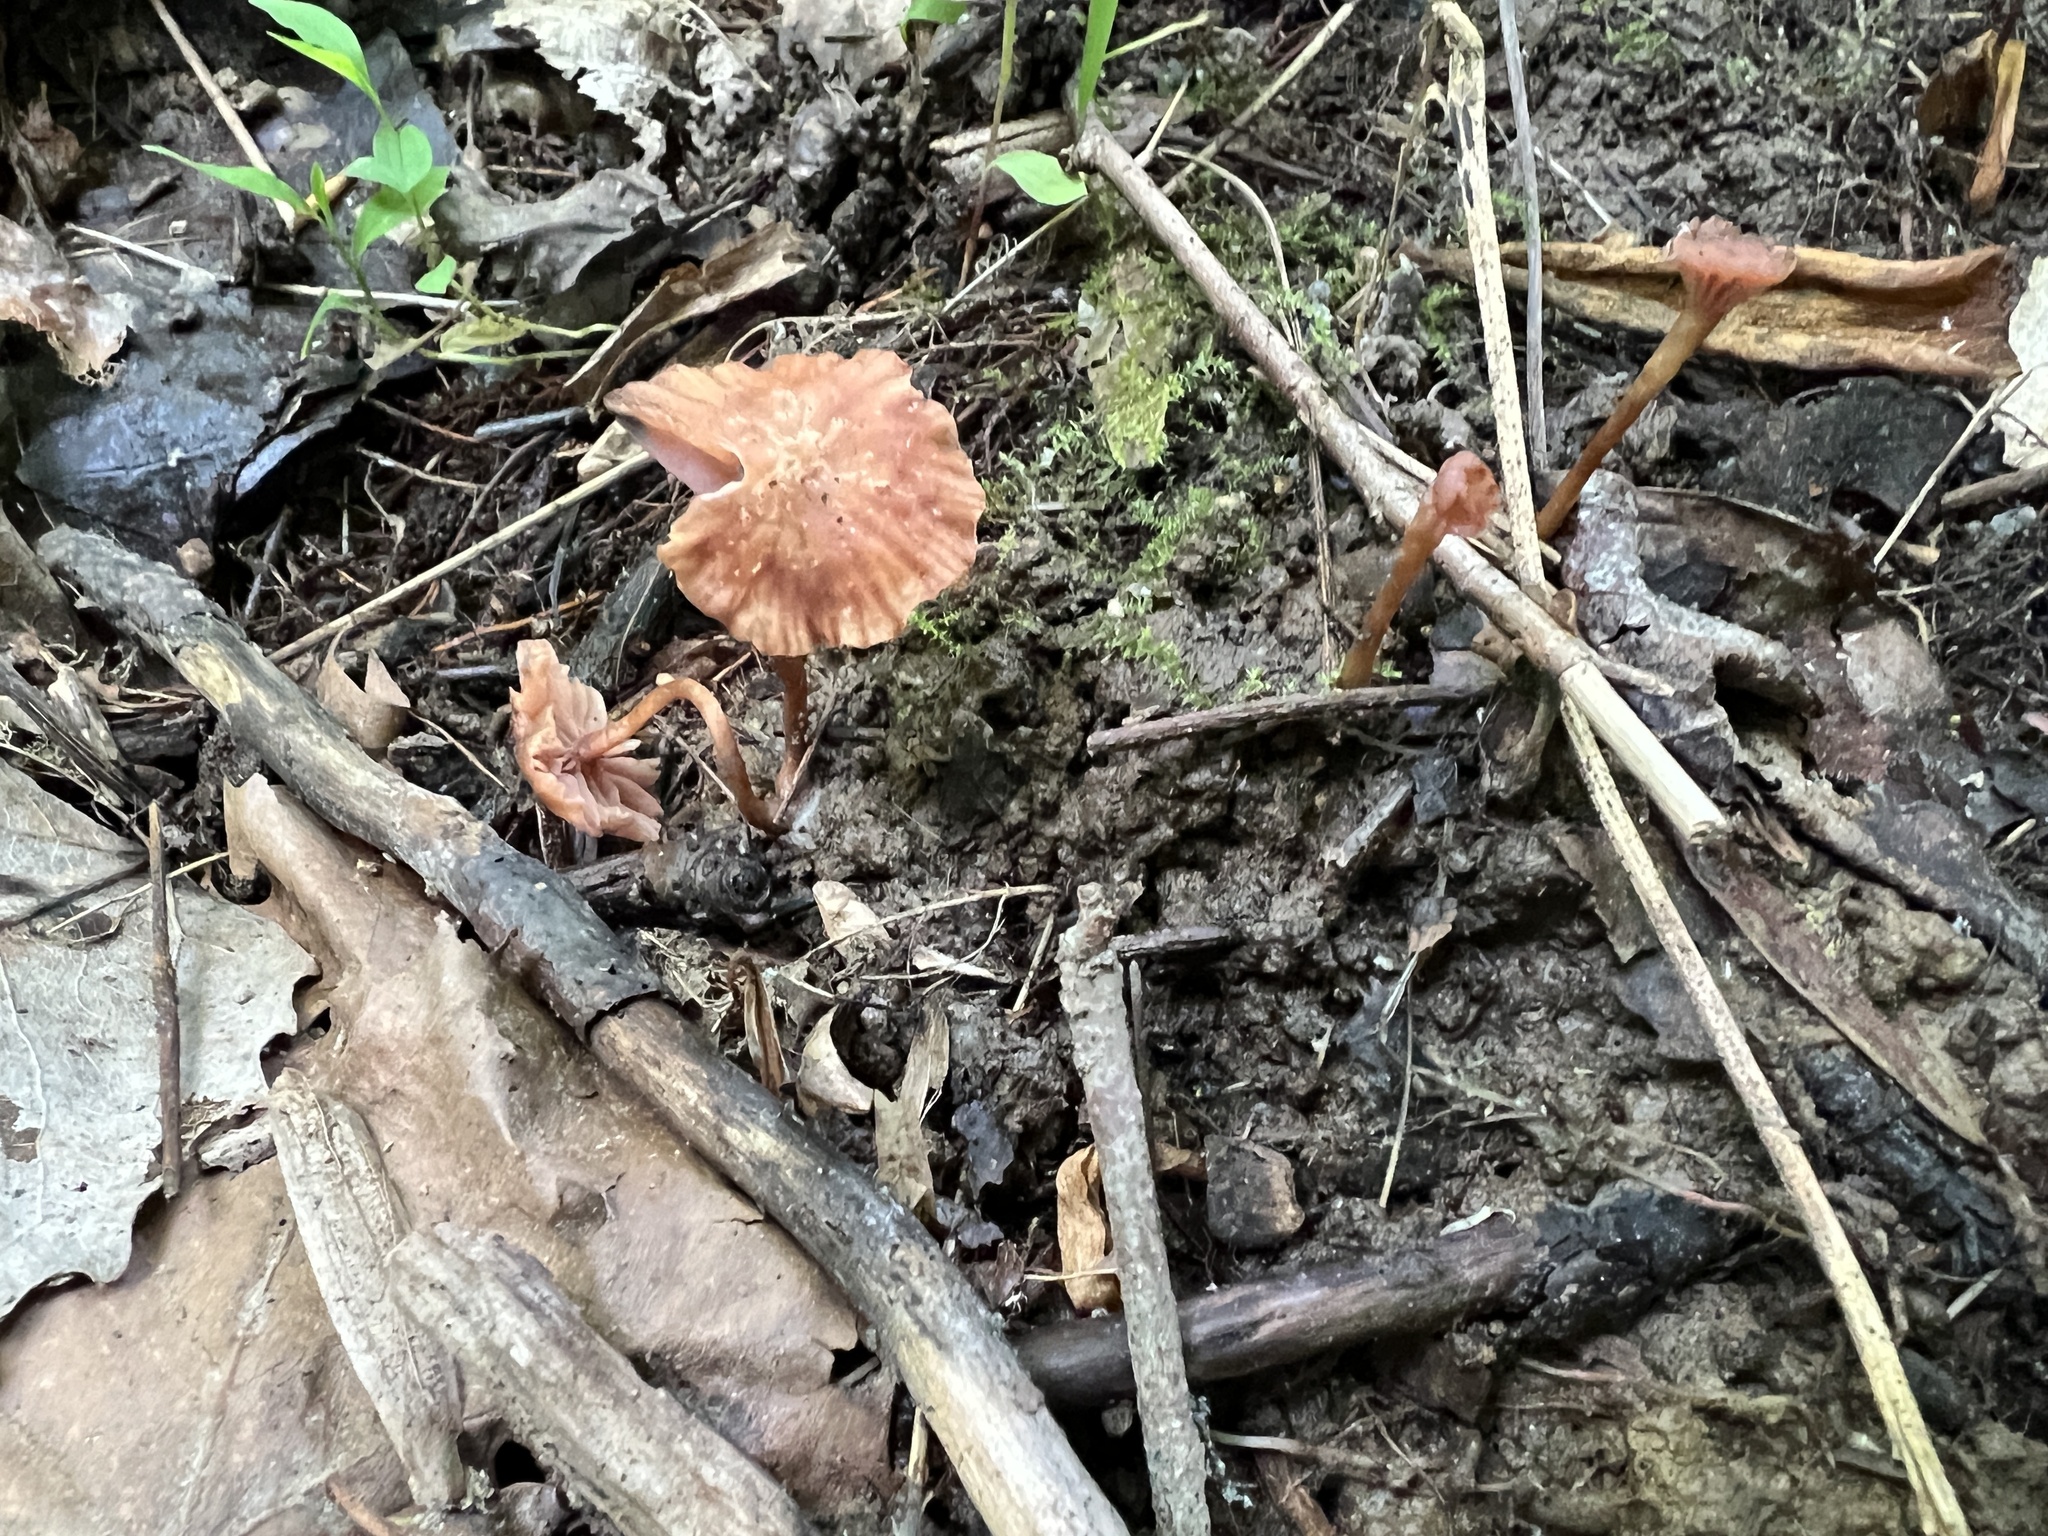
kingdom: Fungi
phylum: Basidiomycota
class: Agaricomycetes
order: Agaricales
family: Hydnangiaceae
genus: Laccaria
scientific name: Laccaria laccata
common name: Deceiver
